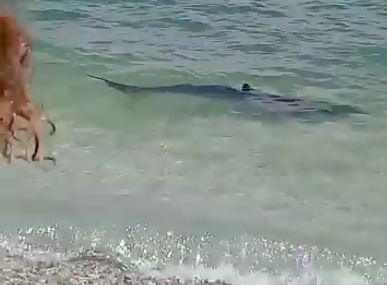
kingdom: Animalia
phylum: Chordata
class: Elasmobranchii
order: Carcharhiniformes
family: Carcharhinidae
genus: Prionace
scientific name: Prionace glauca
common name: Blue shark
